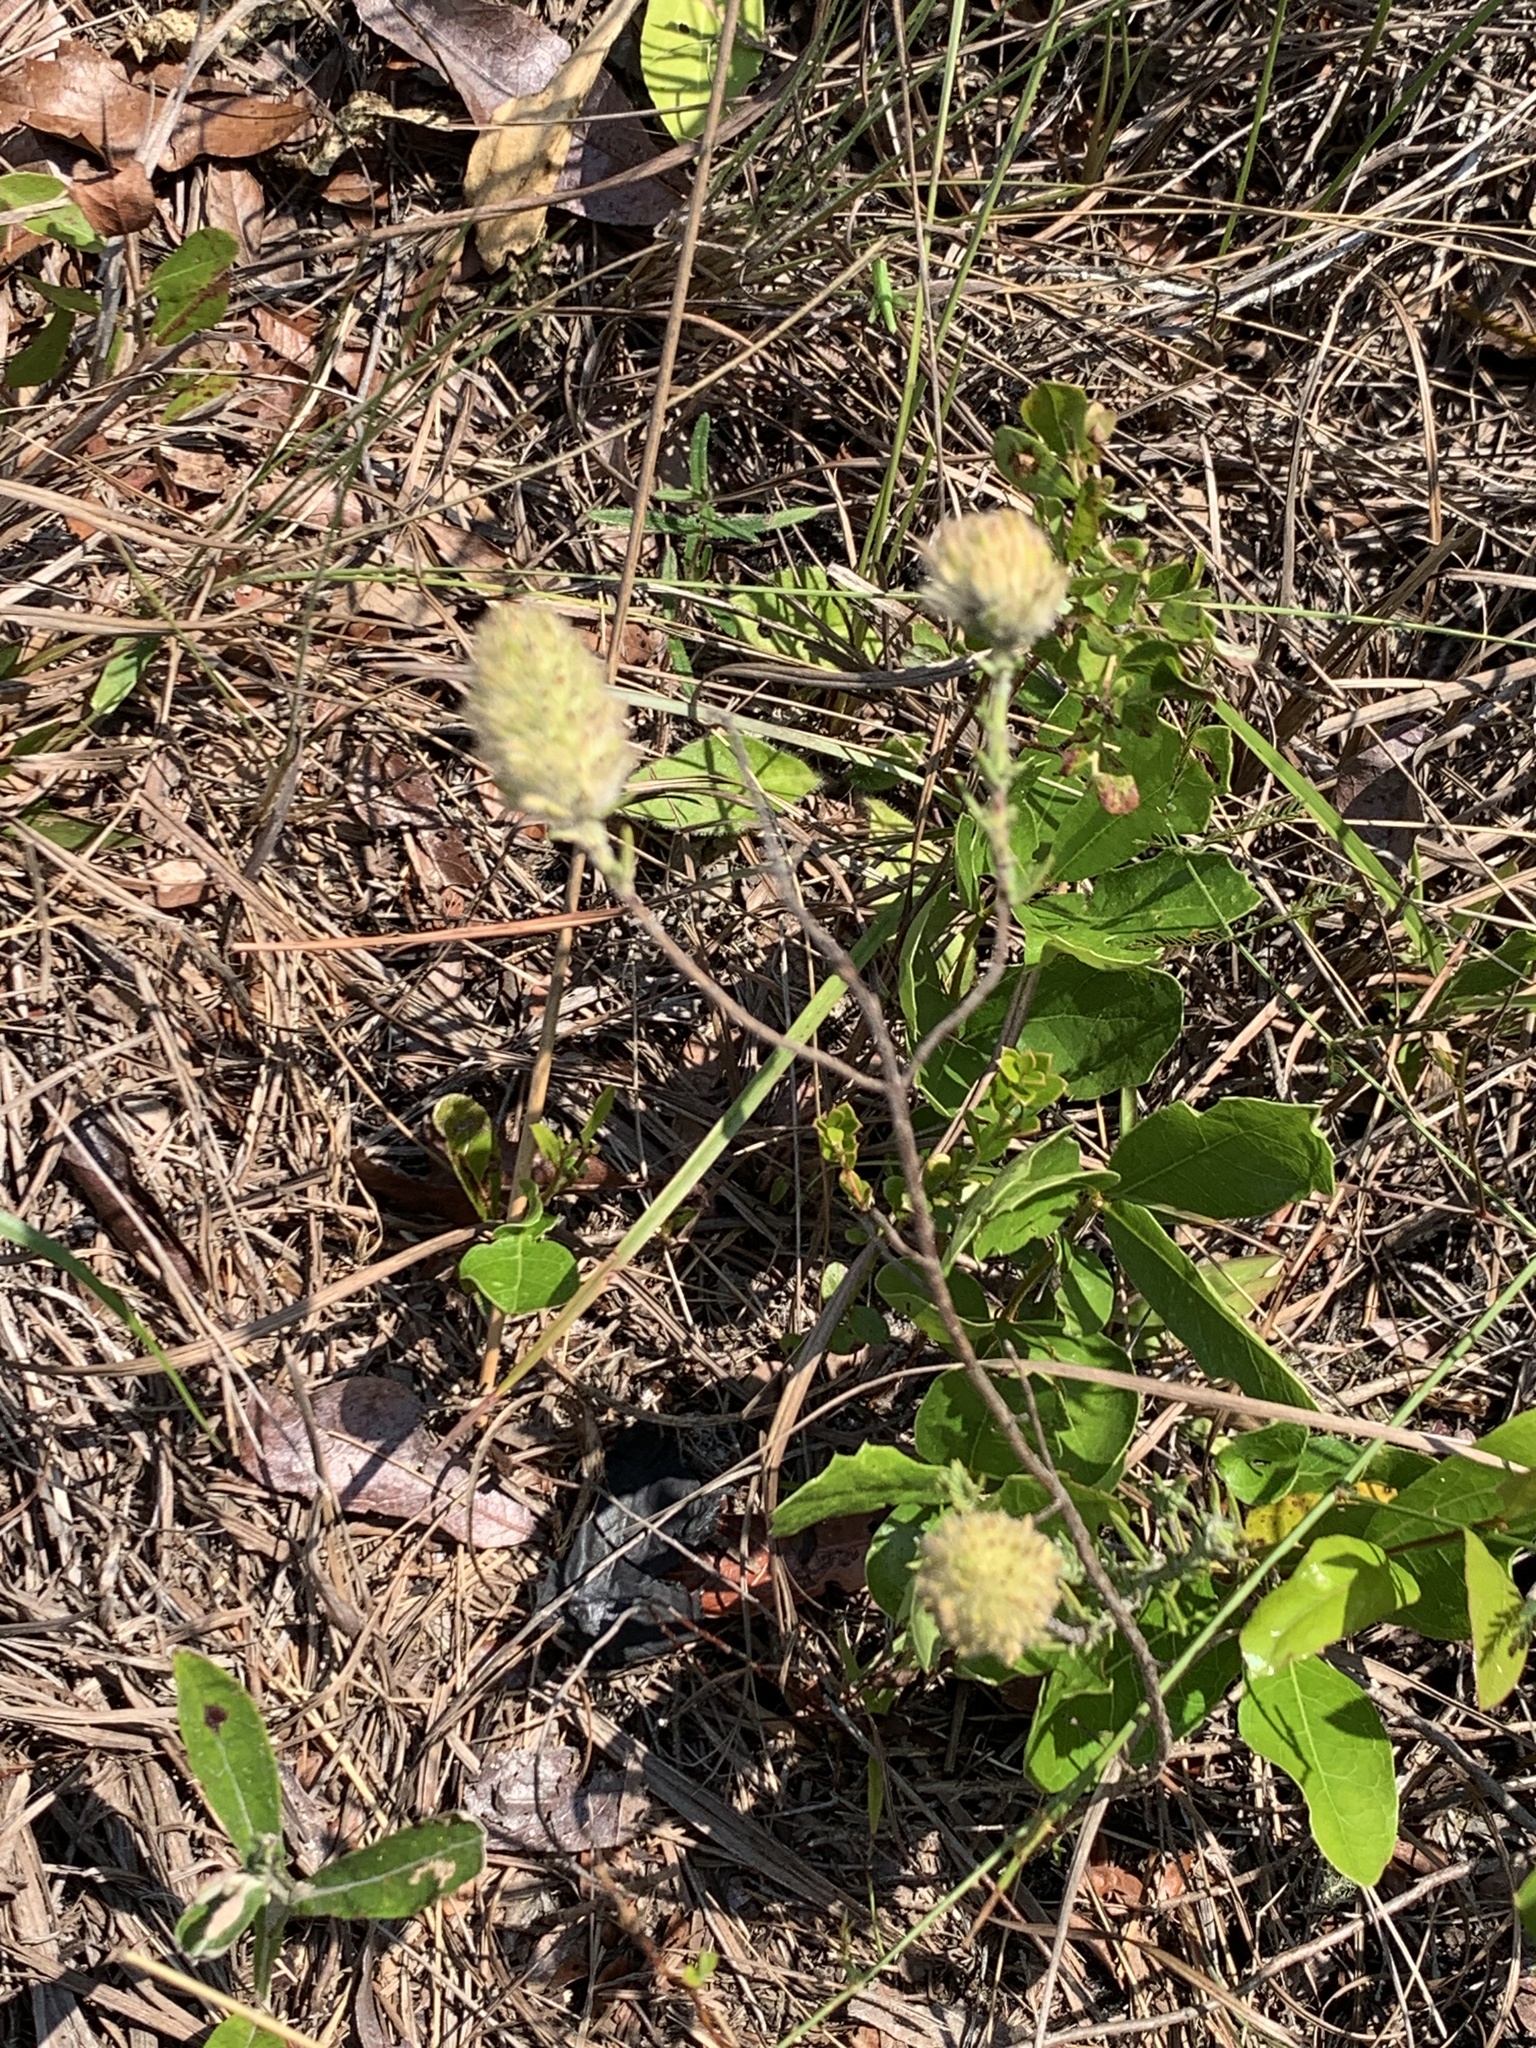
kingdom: Plantae
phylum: Tracheophyta
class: Magnoliopsida
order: Lamiales
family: Lamiaceae
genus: Piloblephis
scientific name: Piloblephis rigida
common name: Wild pennyroyal
